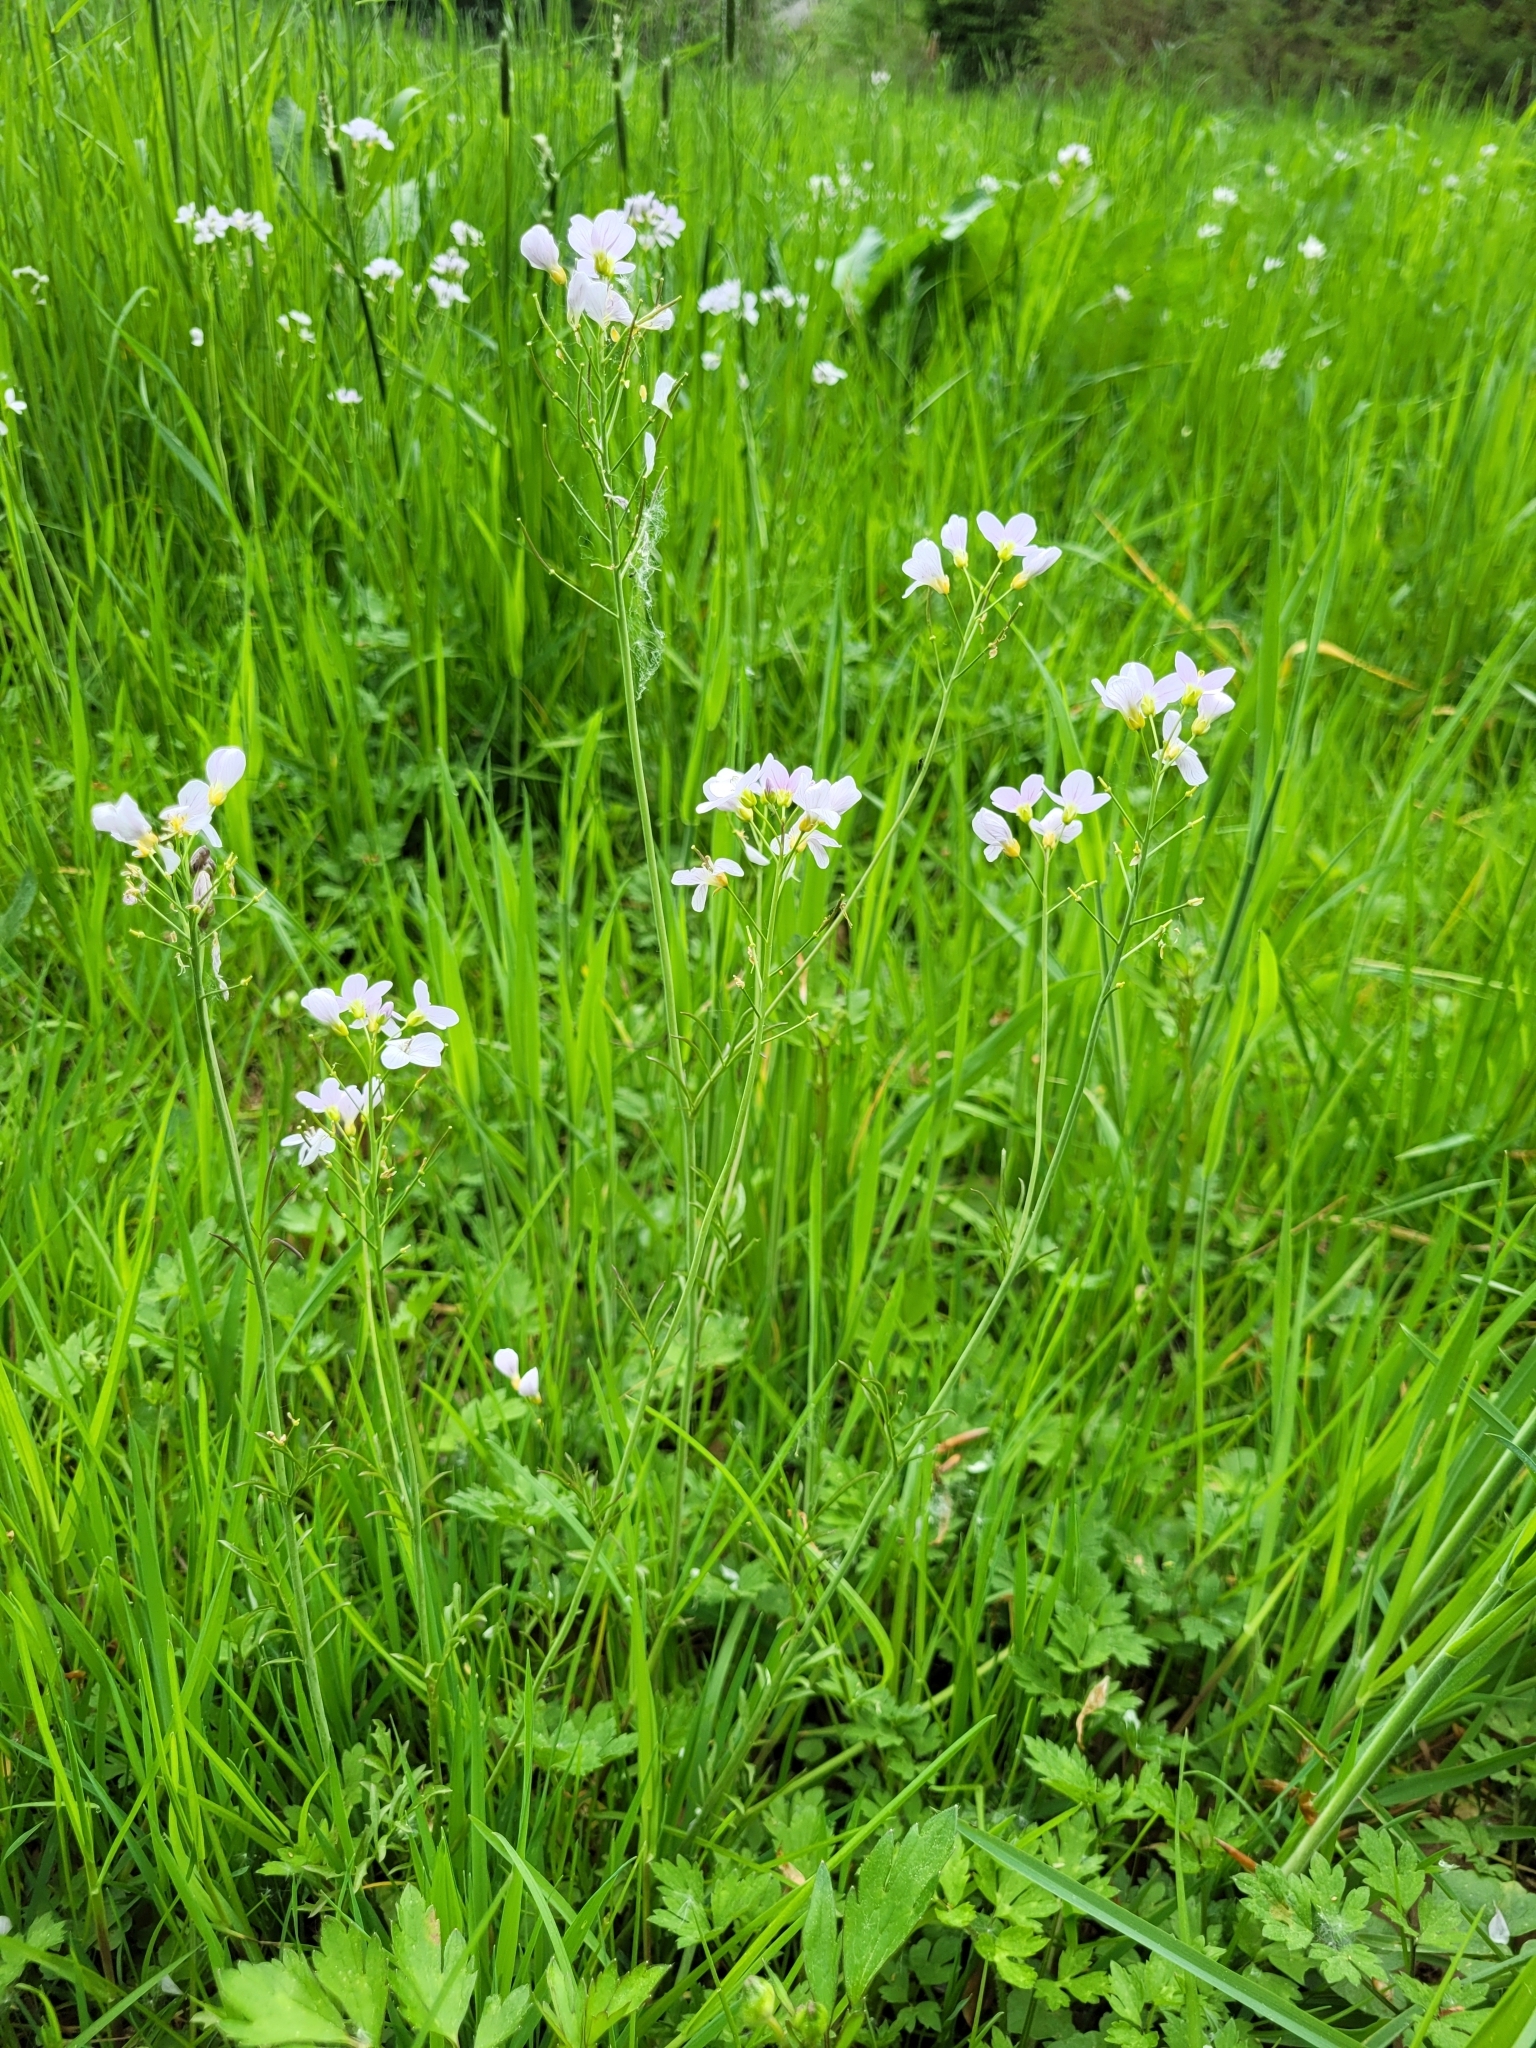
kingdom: Plantae
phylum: Tracheophyta
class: Magnoliopsida
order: Brassicales
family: Brassicaceae
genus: Cardamine
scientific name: Cardamine pratensis
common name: Cuckoo flower
